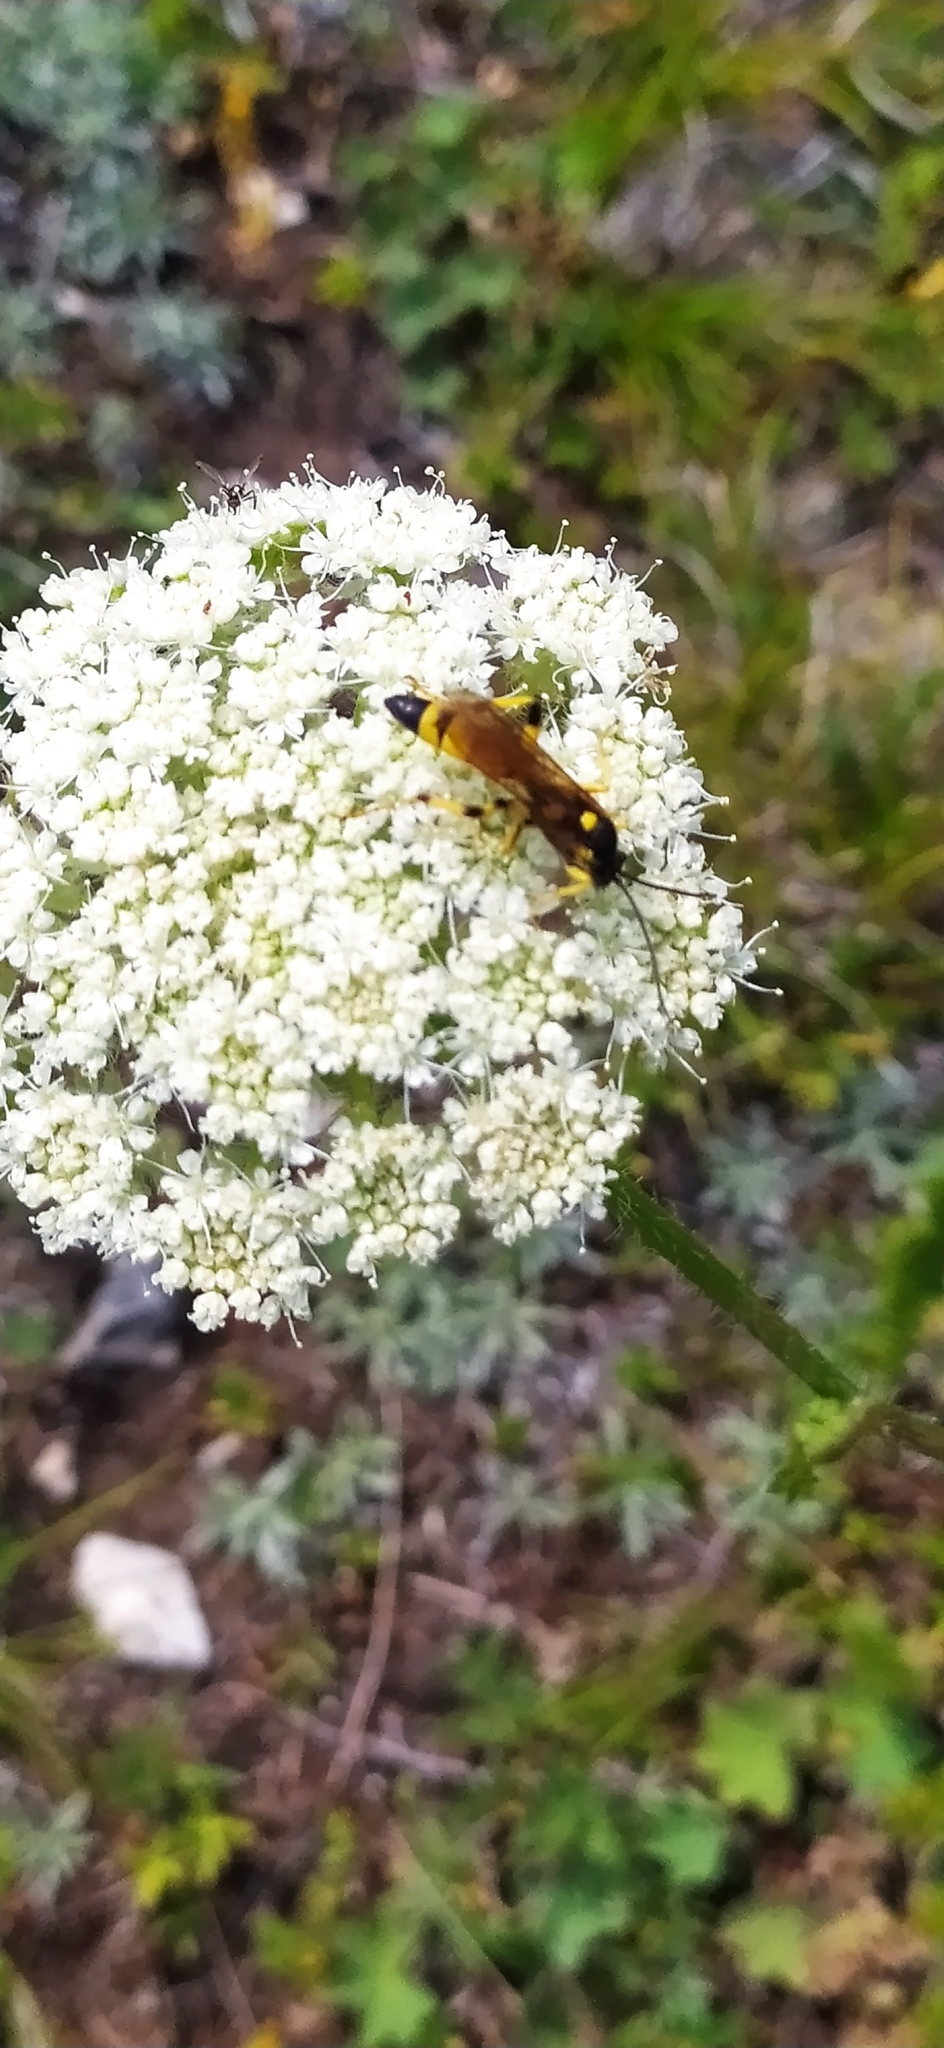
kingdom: Animalia
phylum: Arthropoda
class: Insecta
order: Hymenoptera
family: Ichneumonidae
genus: Ichneumon
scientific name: Ichneumon xanthorius
